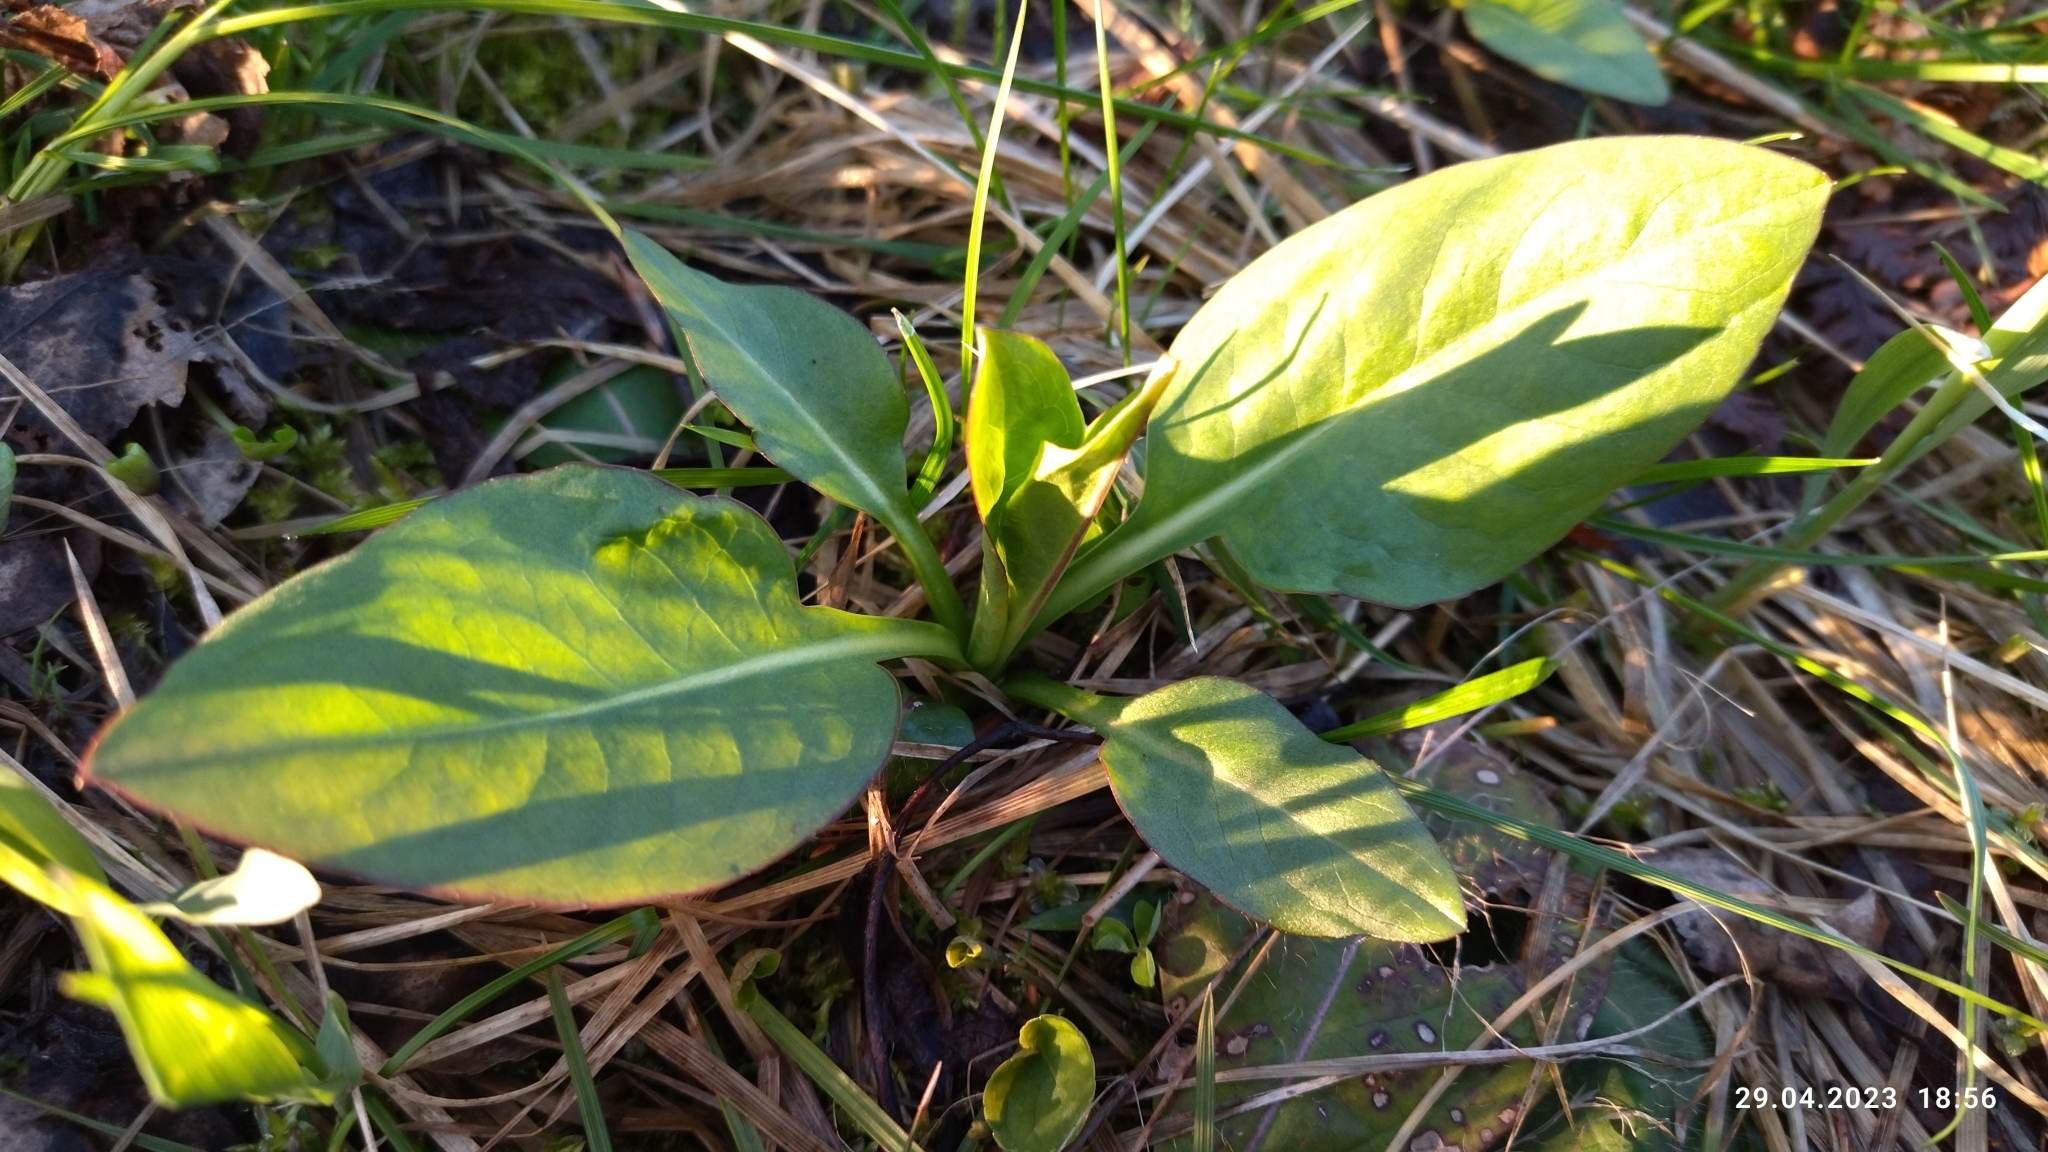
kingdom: Plantae
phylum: Tracheophyta
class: Magnoliopsida
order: Dipsacales
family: Caprifoliaceae
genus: Succisa
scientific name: Succisa pratensis
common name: Devil's-bit
